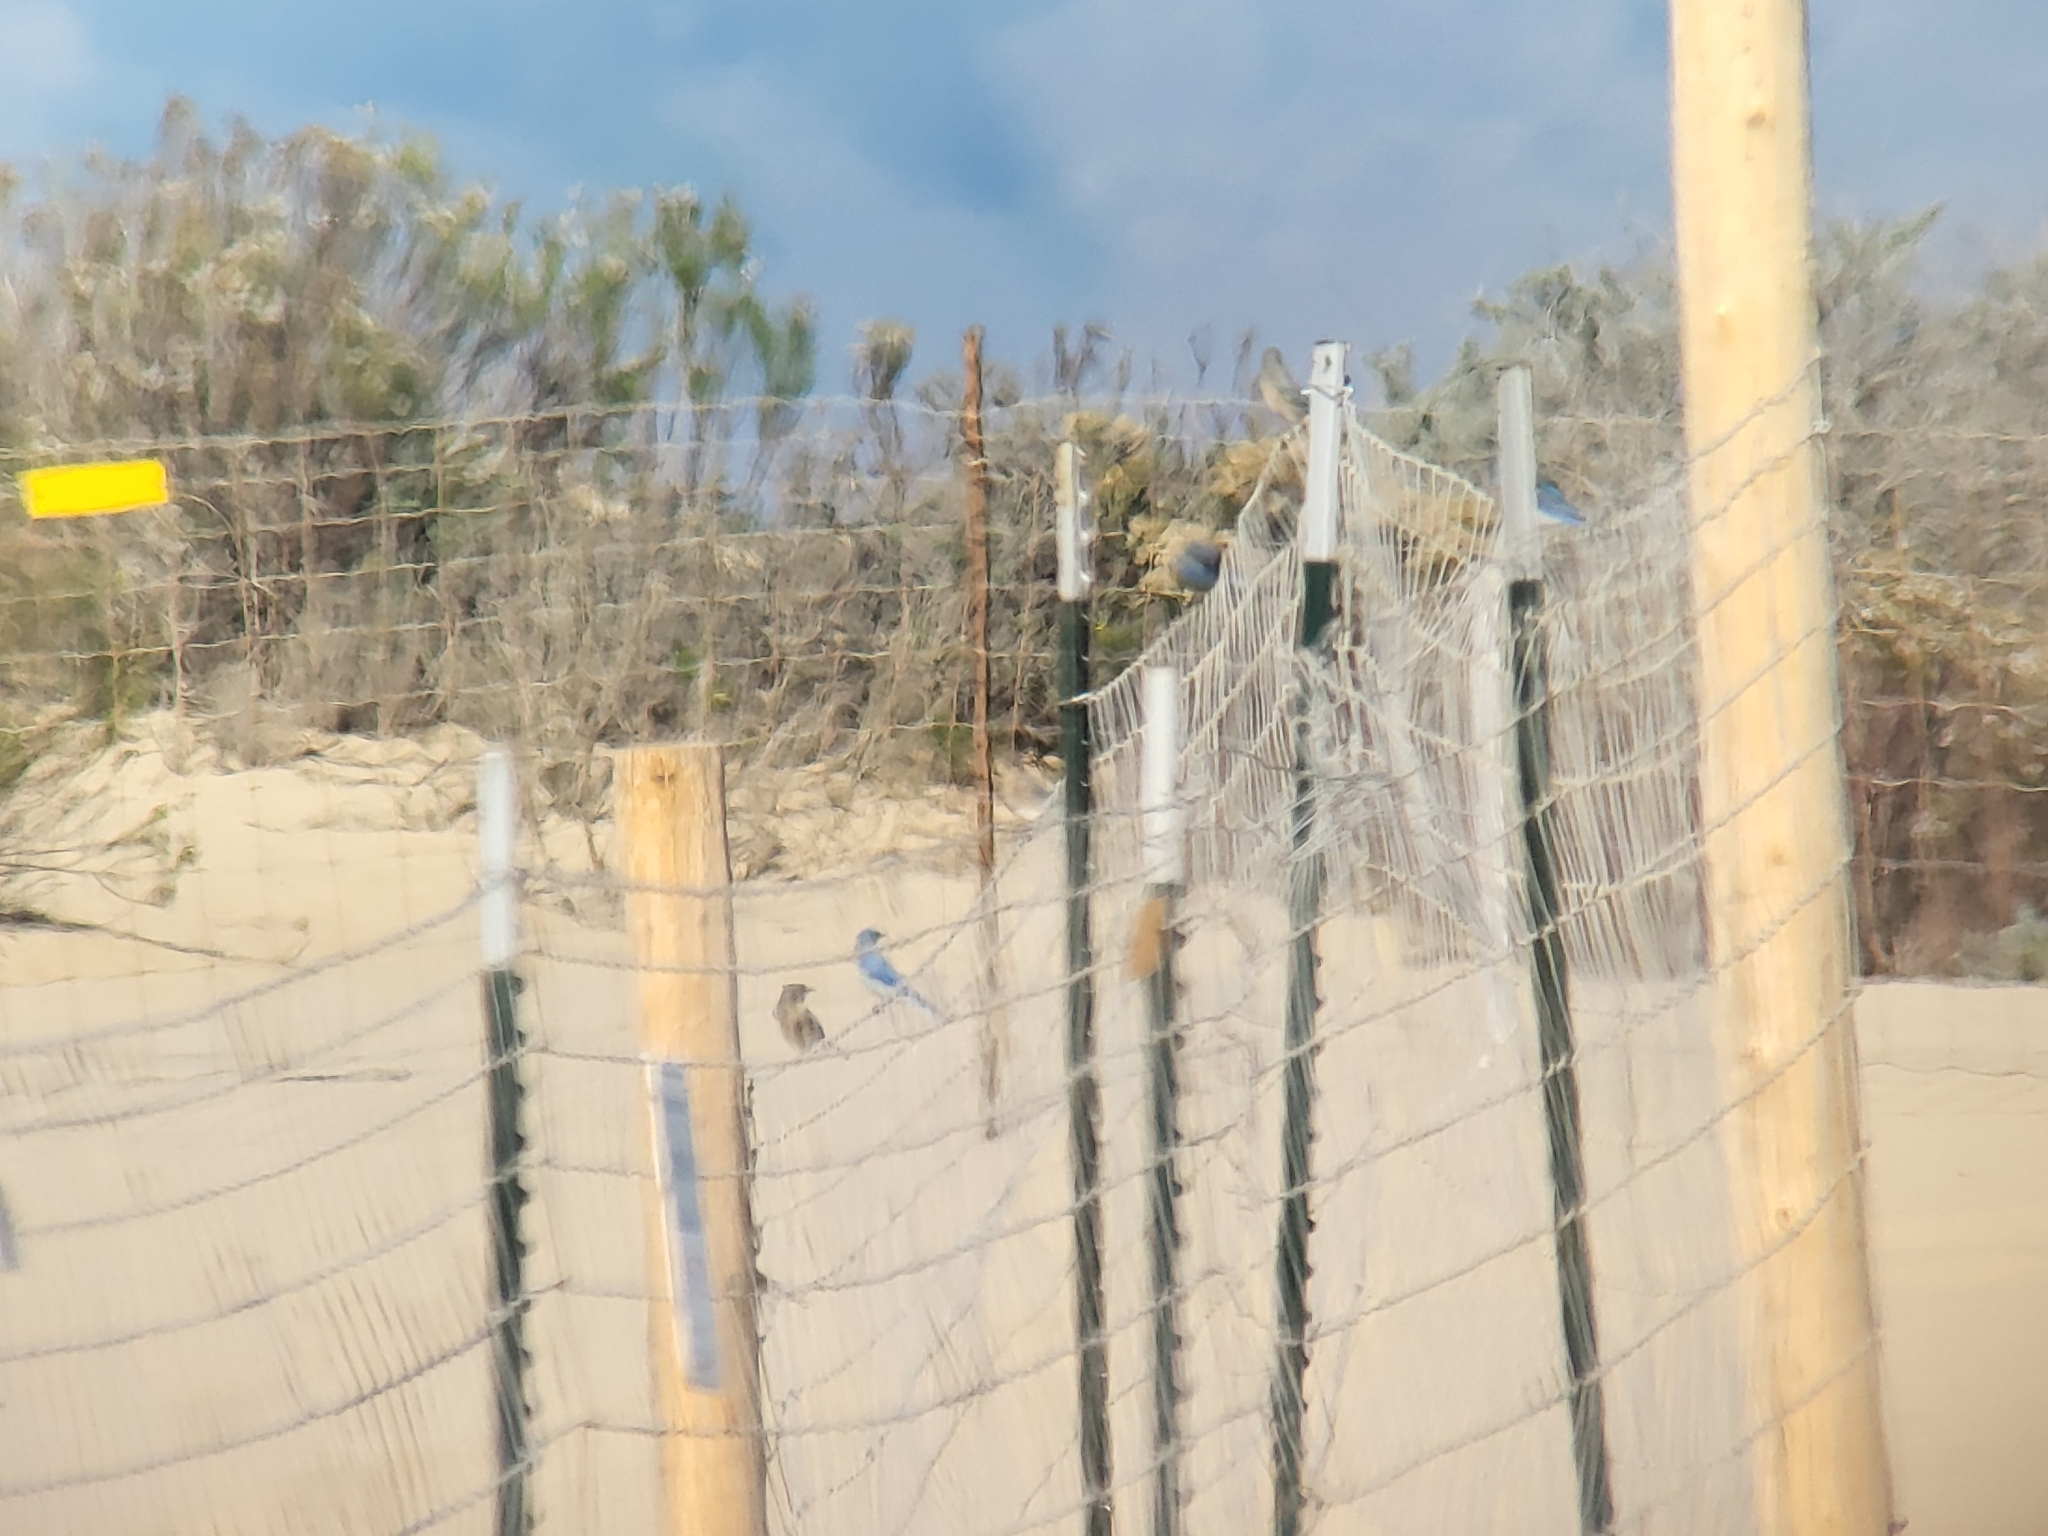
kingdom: Animalia
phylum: Chordata
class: Aves
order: Passeriformes
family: Turdidae
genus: Sialia
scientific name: Sialia mexicana
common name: Western bluebird
